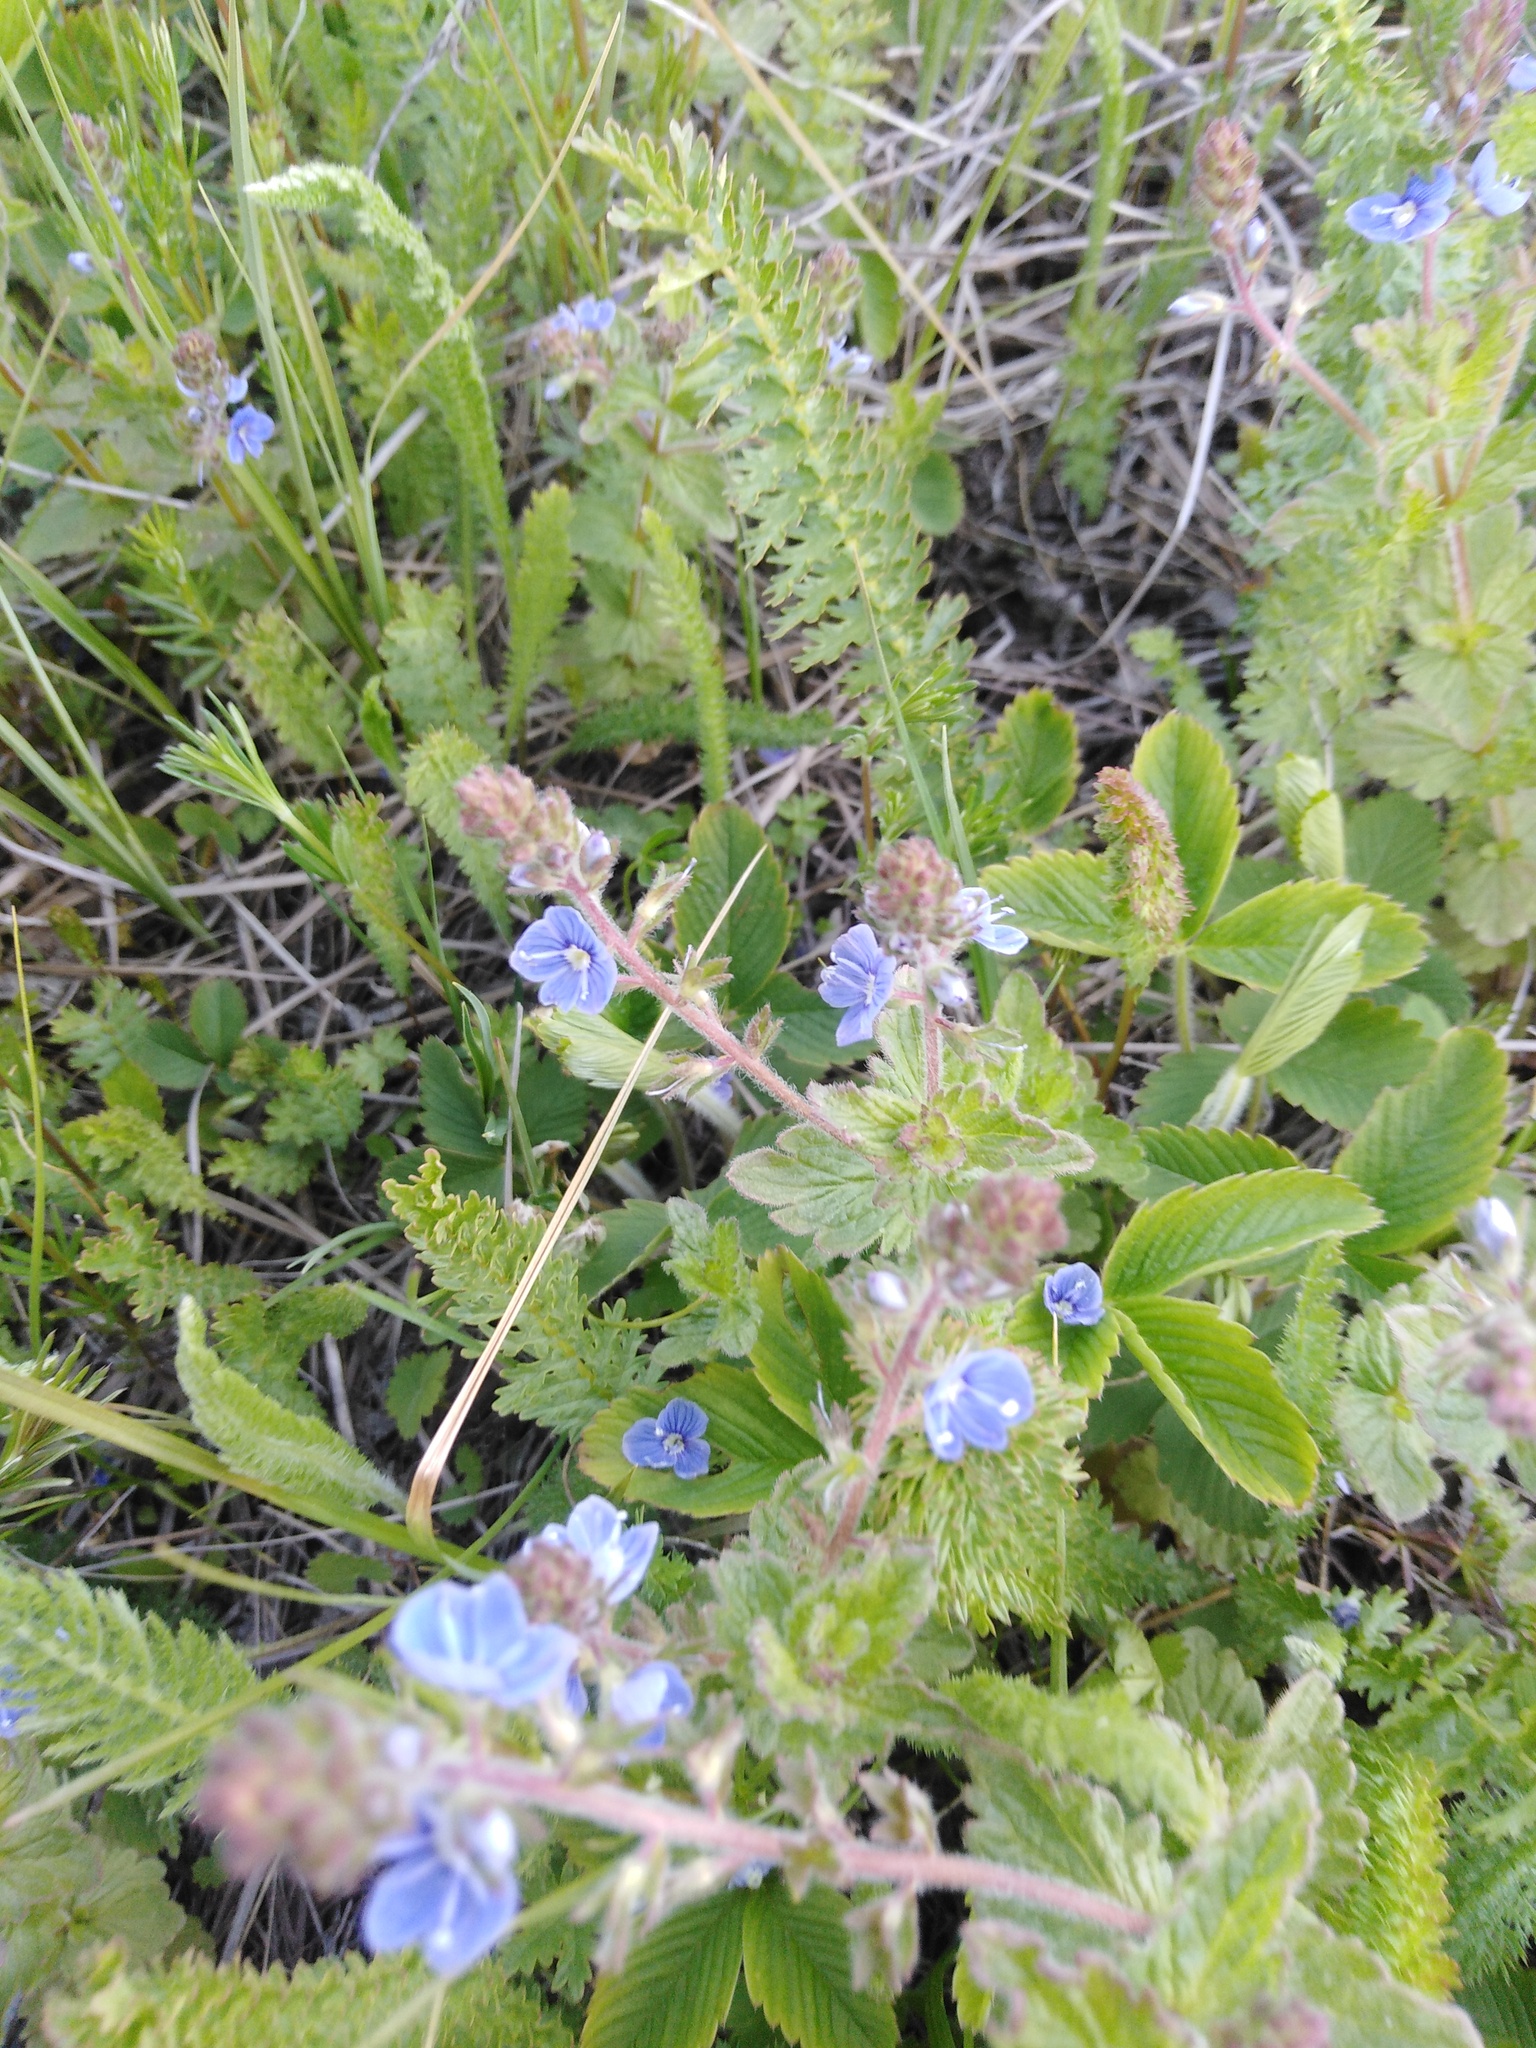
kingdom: Plantae
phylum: Tracheophyta
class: Magnoliopsida
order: Lamiales
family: Plantaginaceae
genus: Veronica
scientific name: Veronica chamaedrys
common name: Germander speedwell
